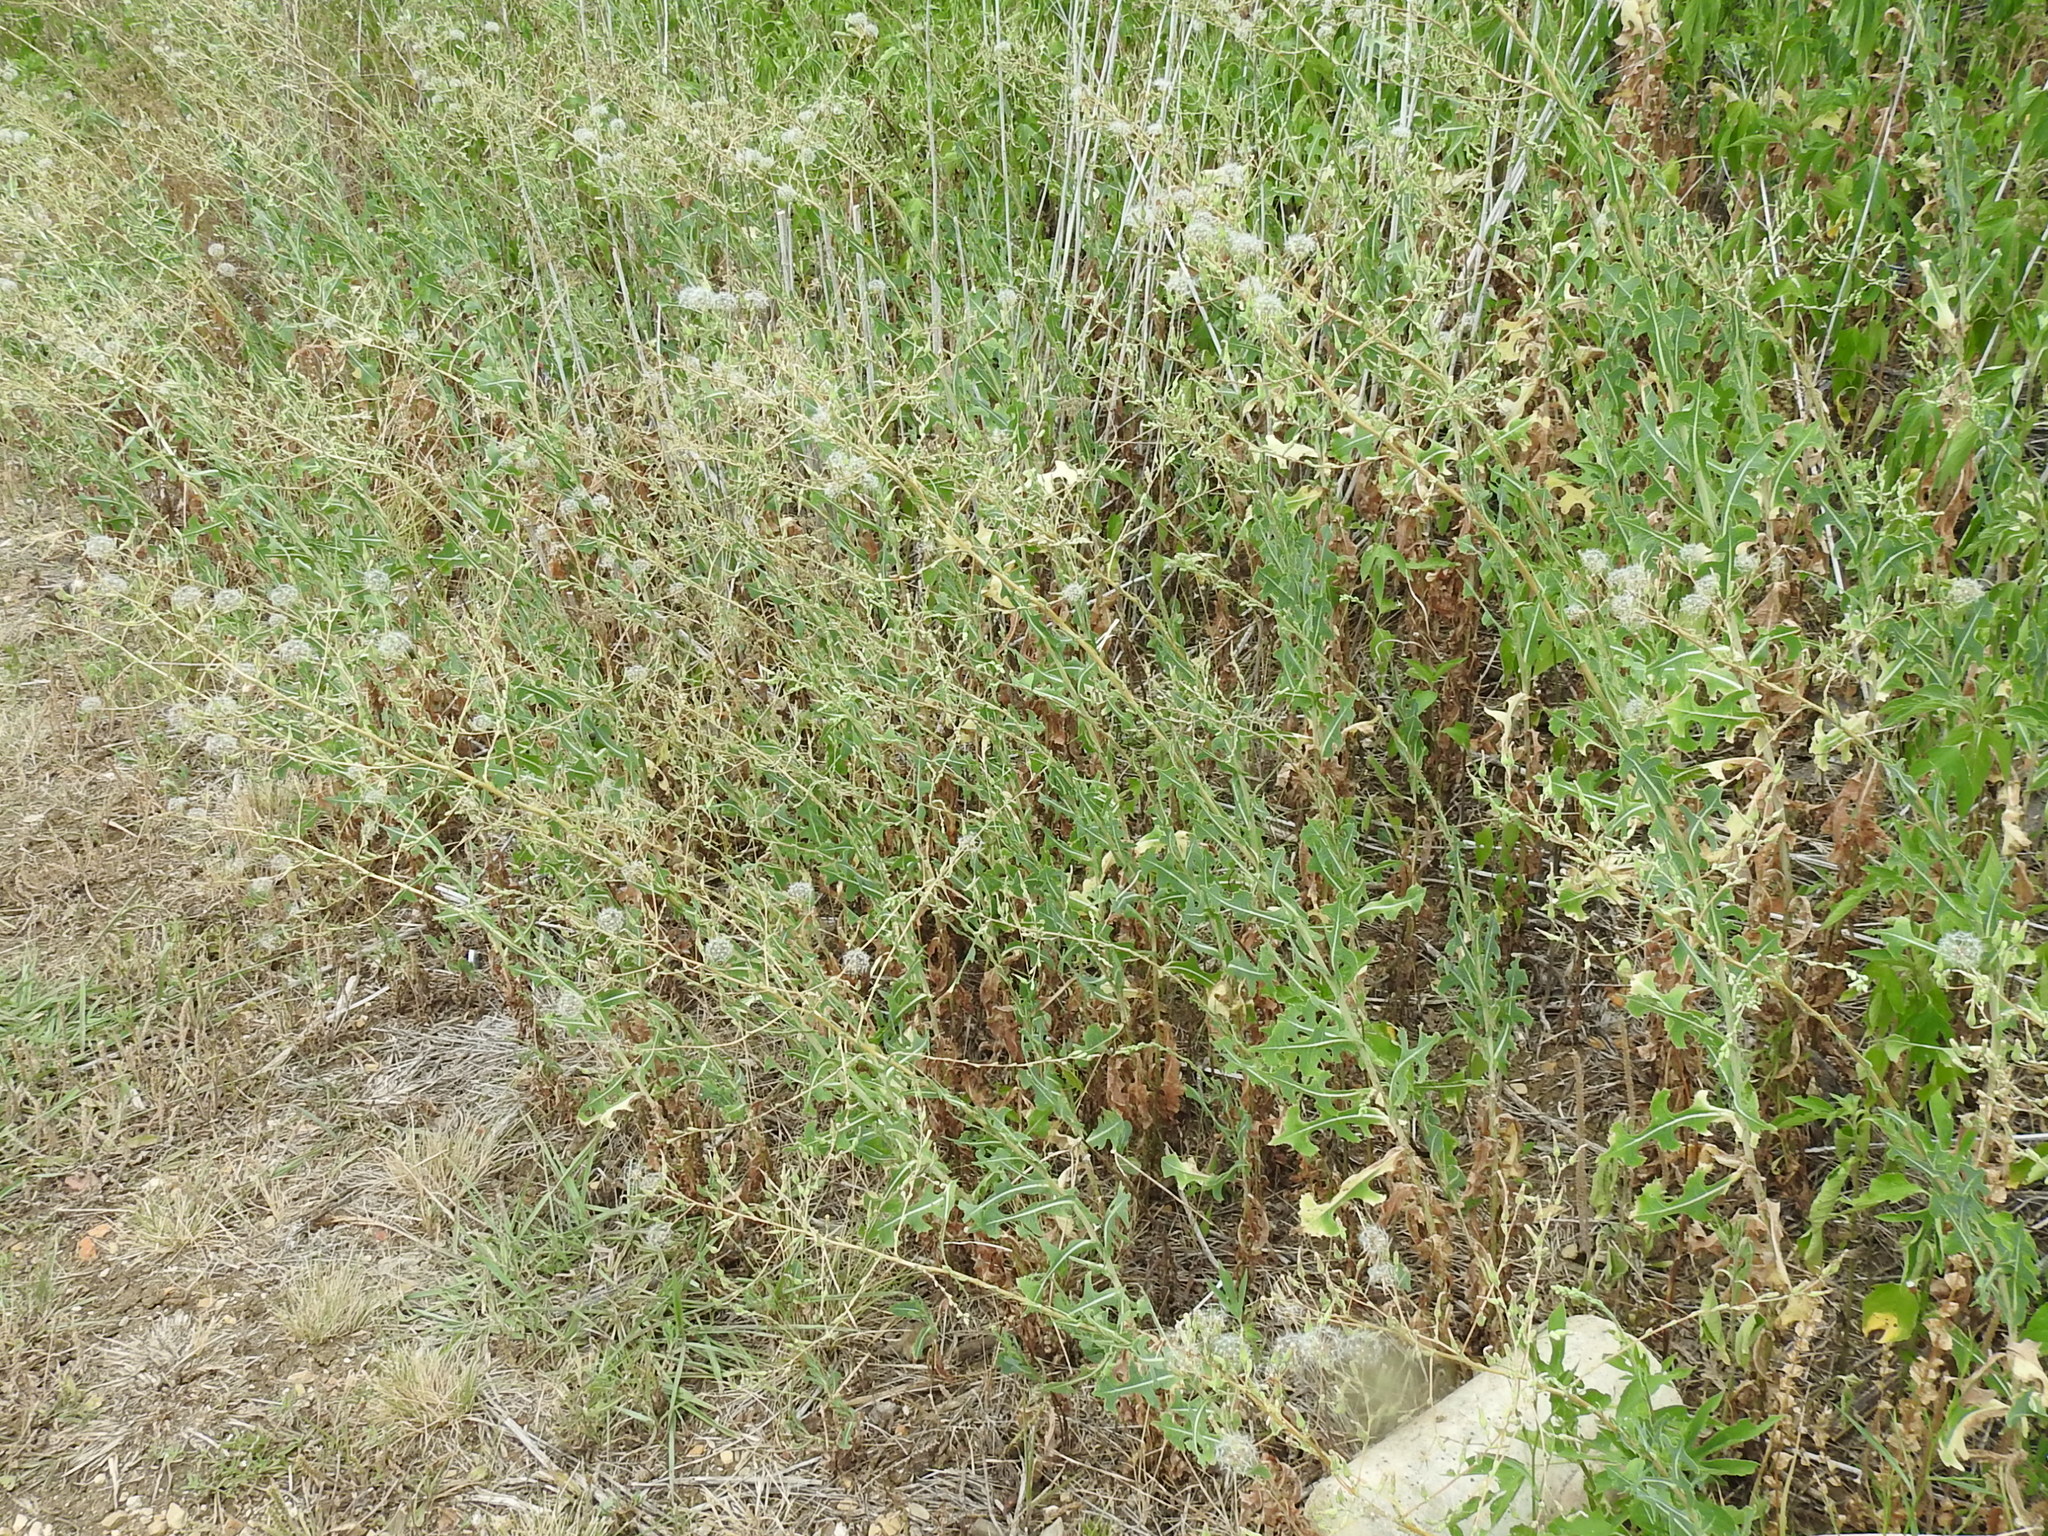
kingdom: Plantae
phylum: Tracheophyta
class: Magnoliopsida
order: Asterales
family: Asteraceae
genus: Lactuca
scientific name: Lactuca serriola
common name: Prickly lettuce
